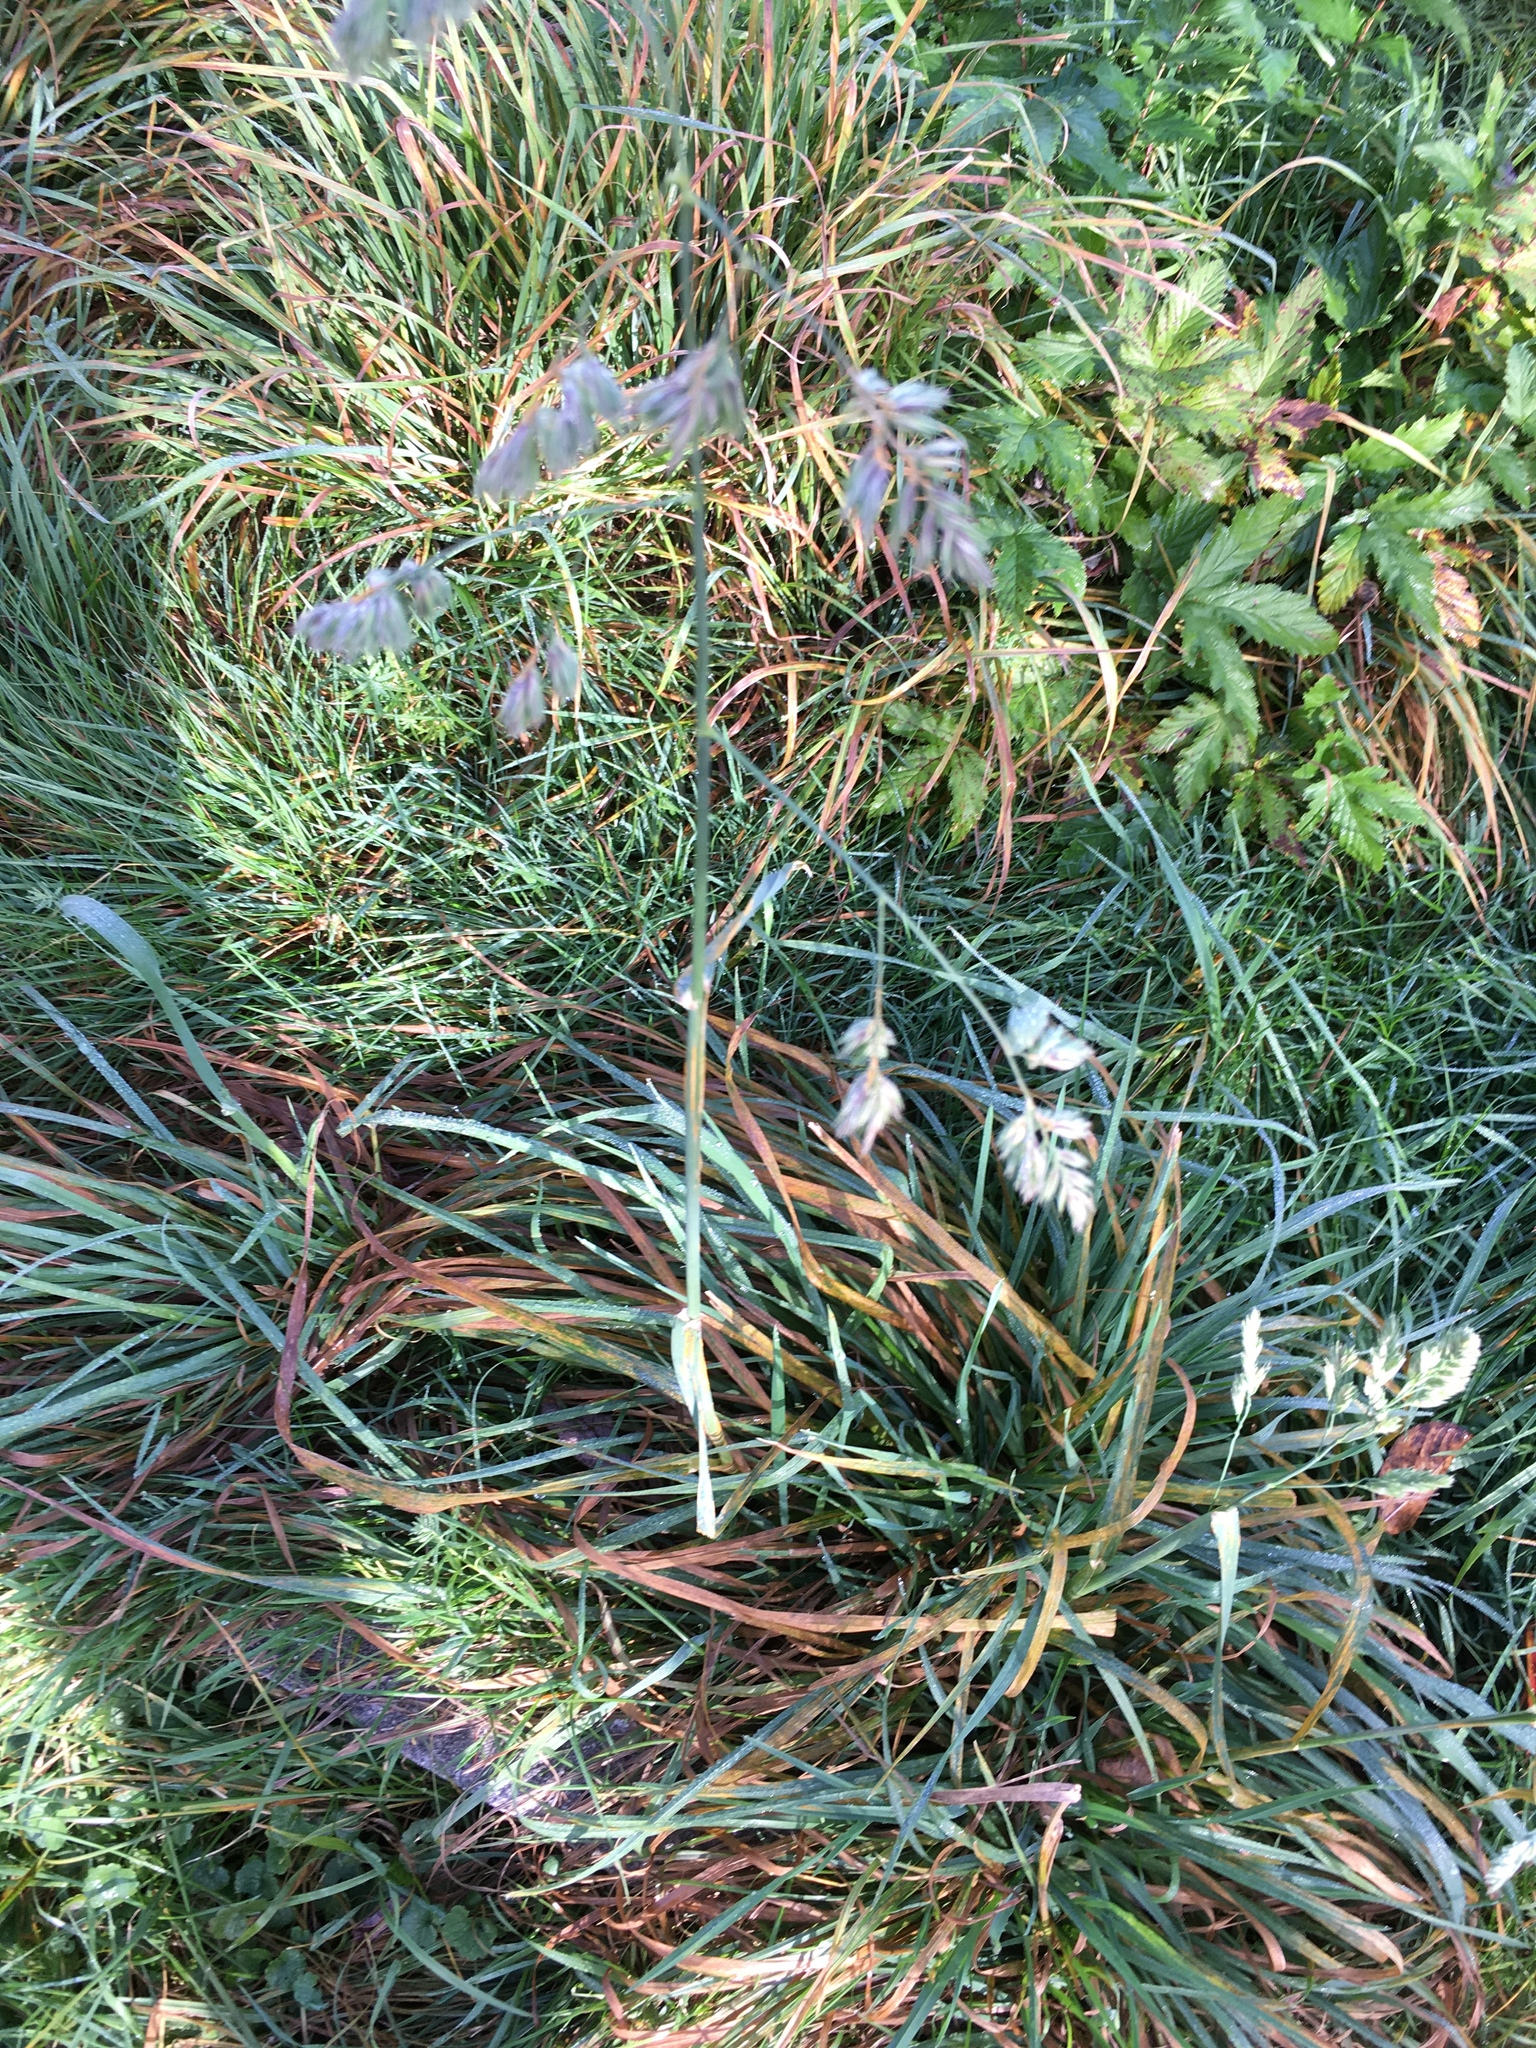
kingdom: Plantae
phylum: Tracheophyta
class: Liliopsida
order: Poales
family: Poaceae
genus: Dactylis
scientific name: Dactylis glomerata
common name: Orchardgrass
